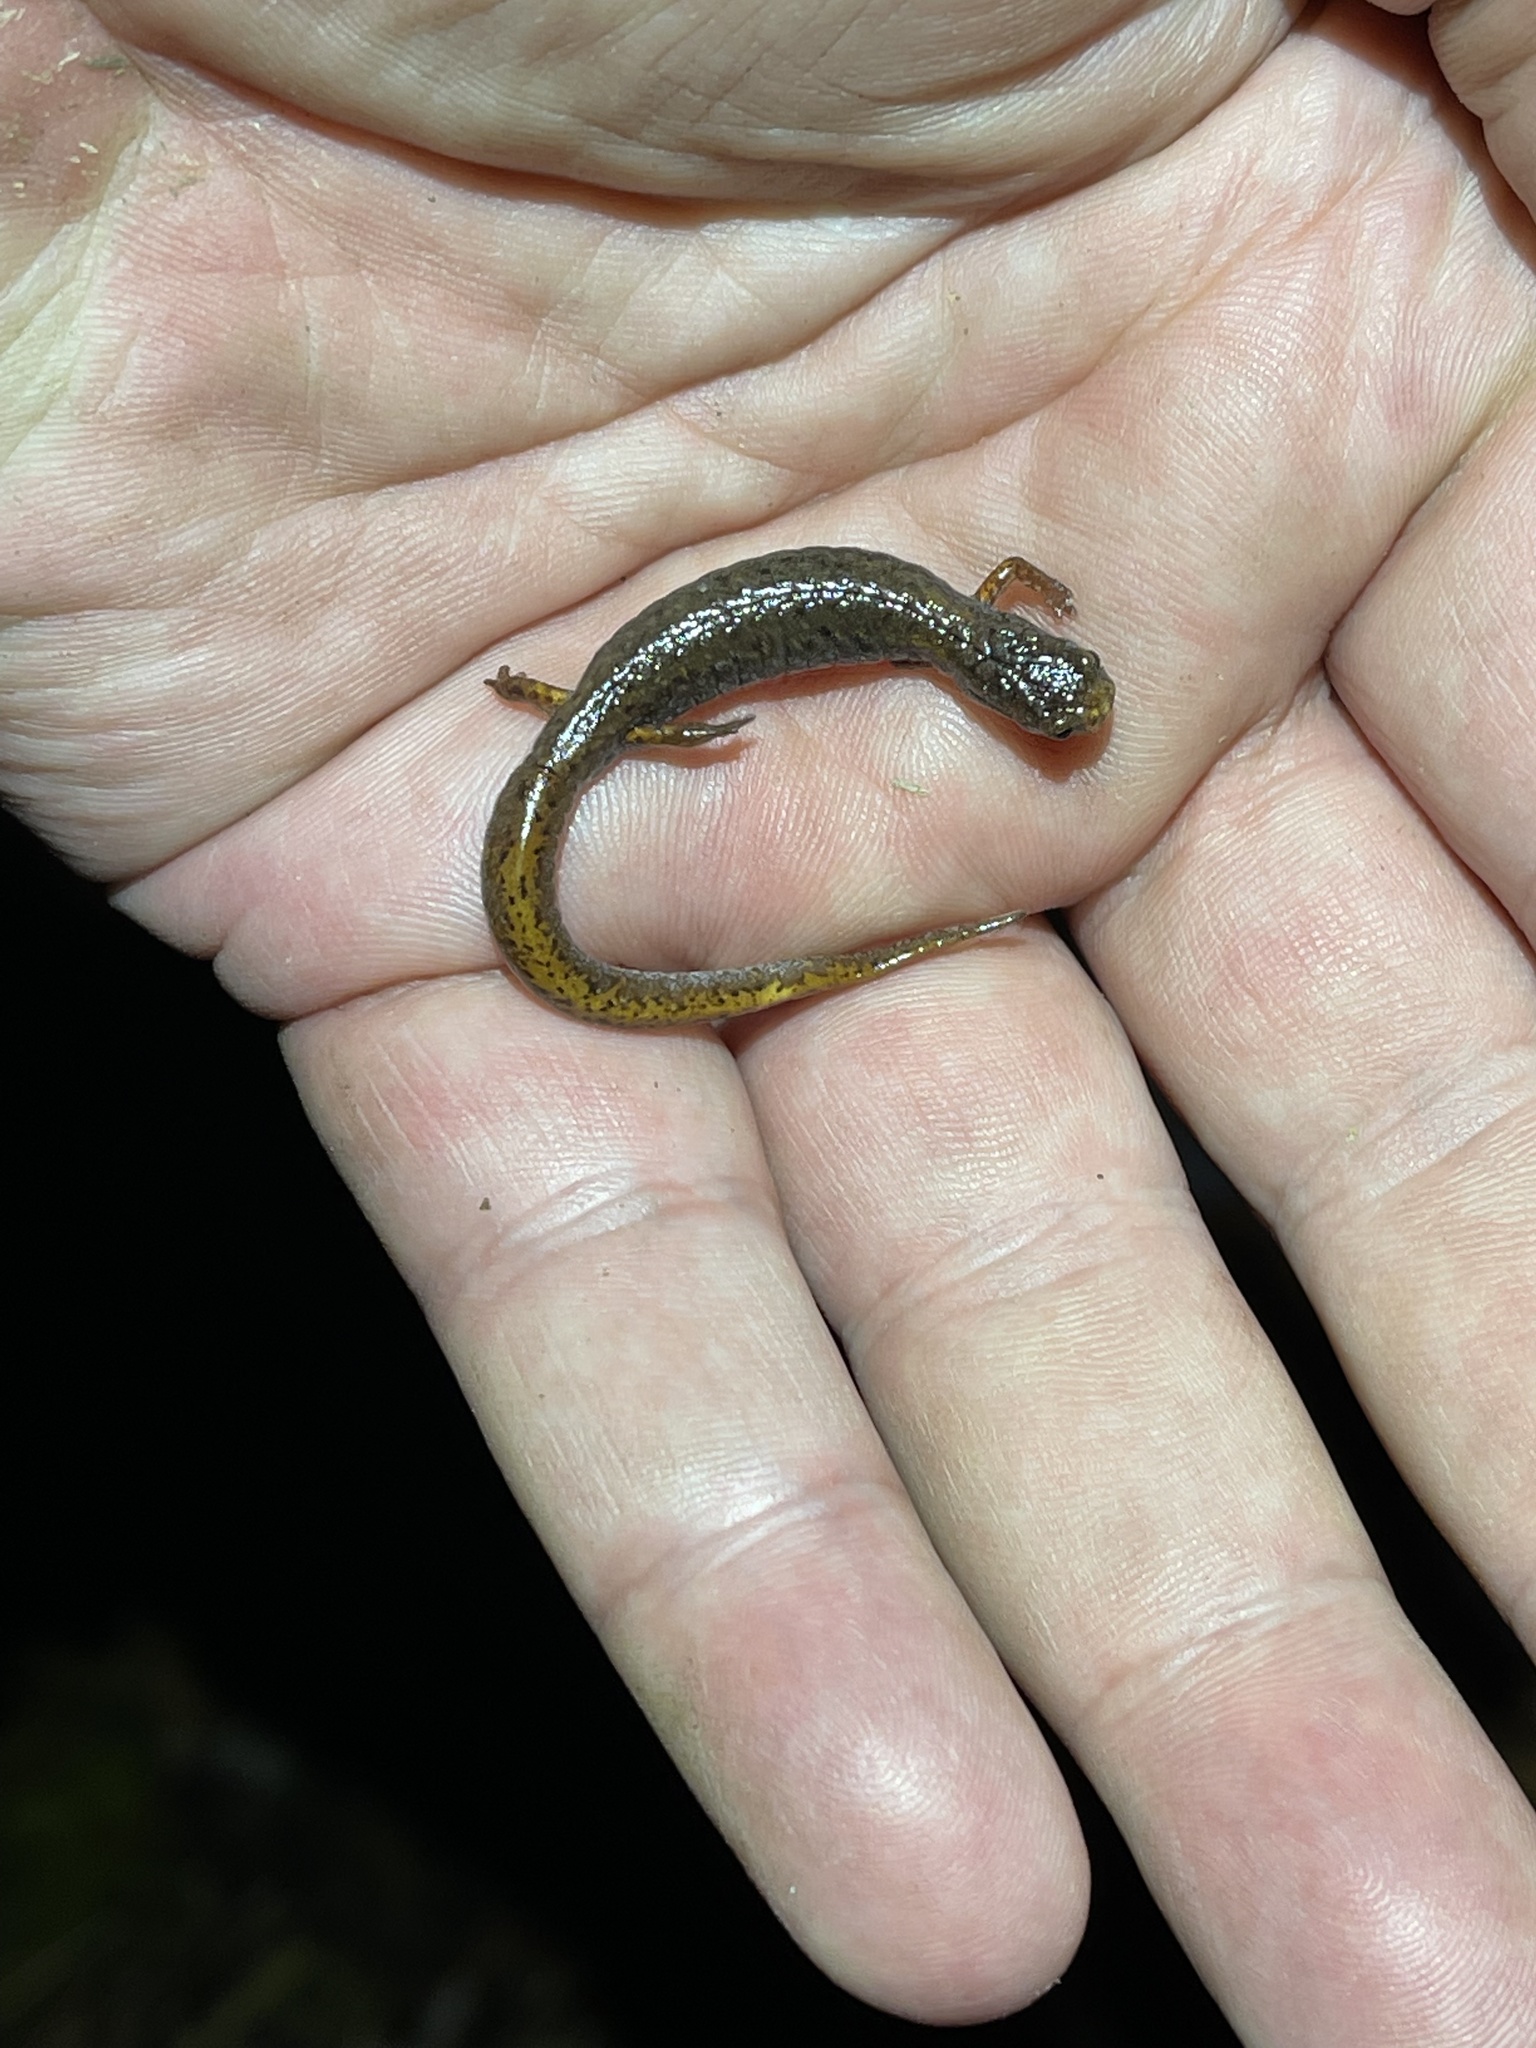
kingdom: Animalia
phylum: Chordata
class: Amphibia
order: Caudata
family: Plethodontidae
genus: Hemidactylium
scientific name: Hemidactylium scutatum
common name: Four-toed salamander
